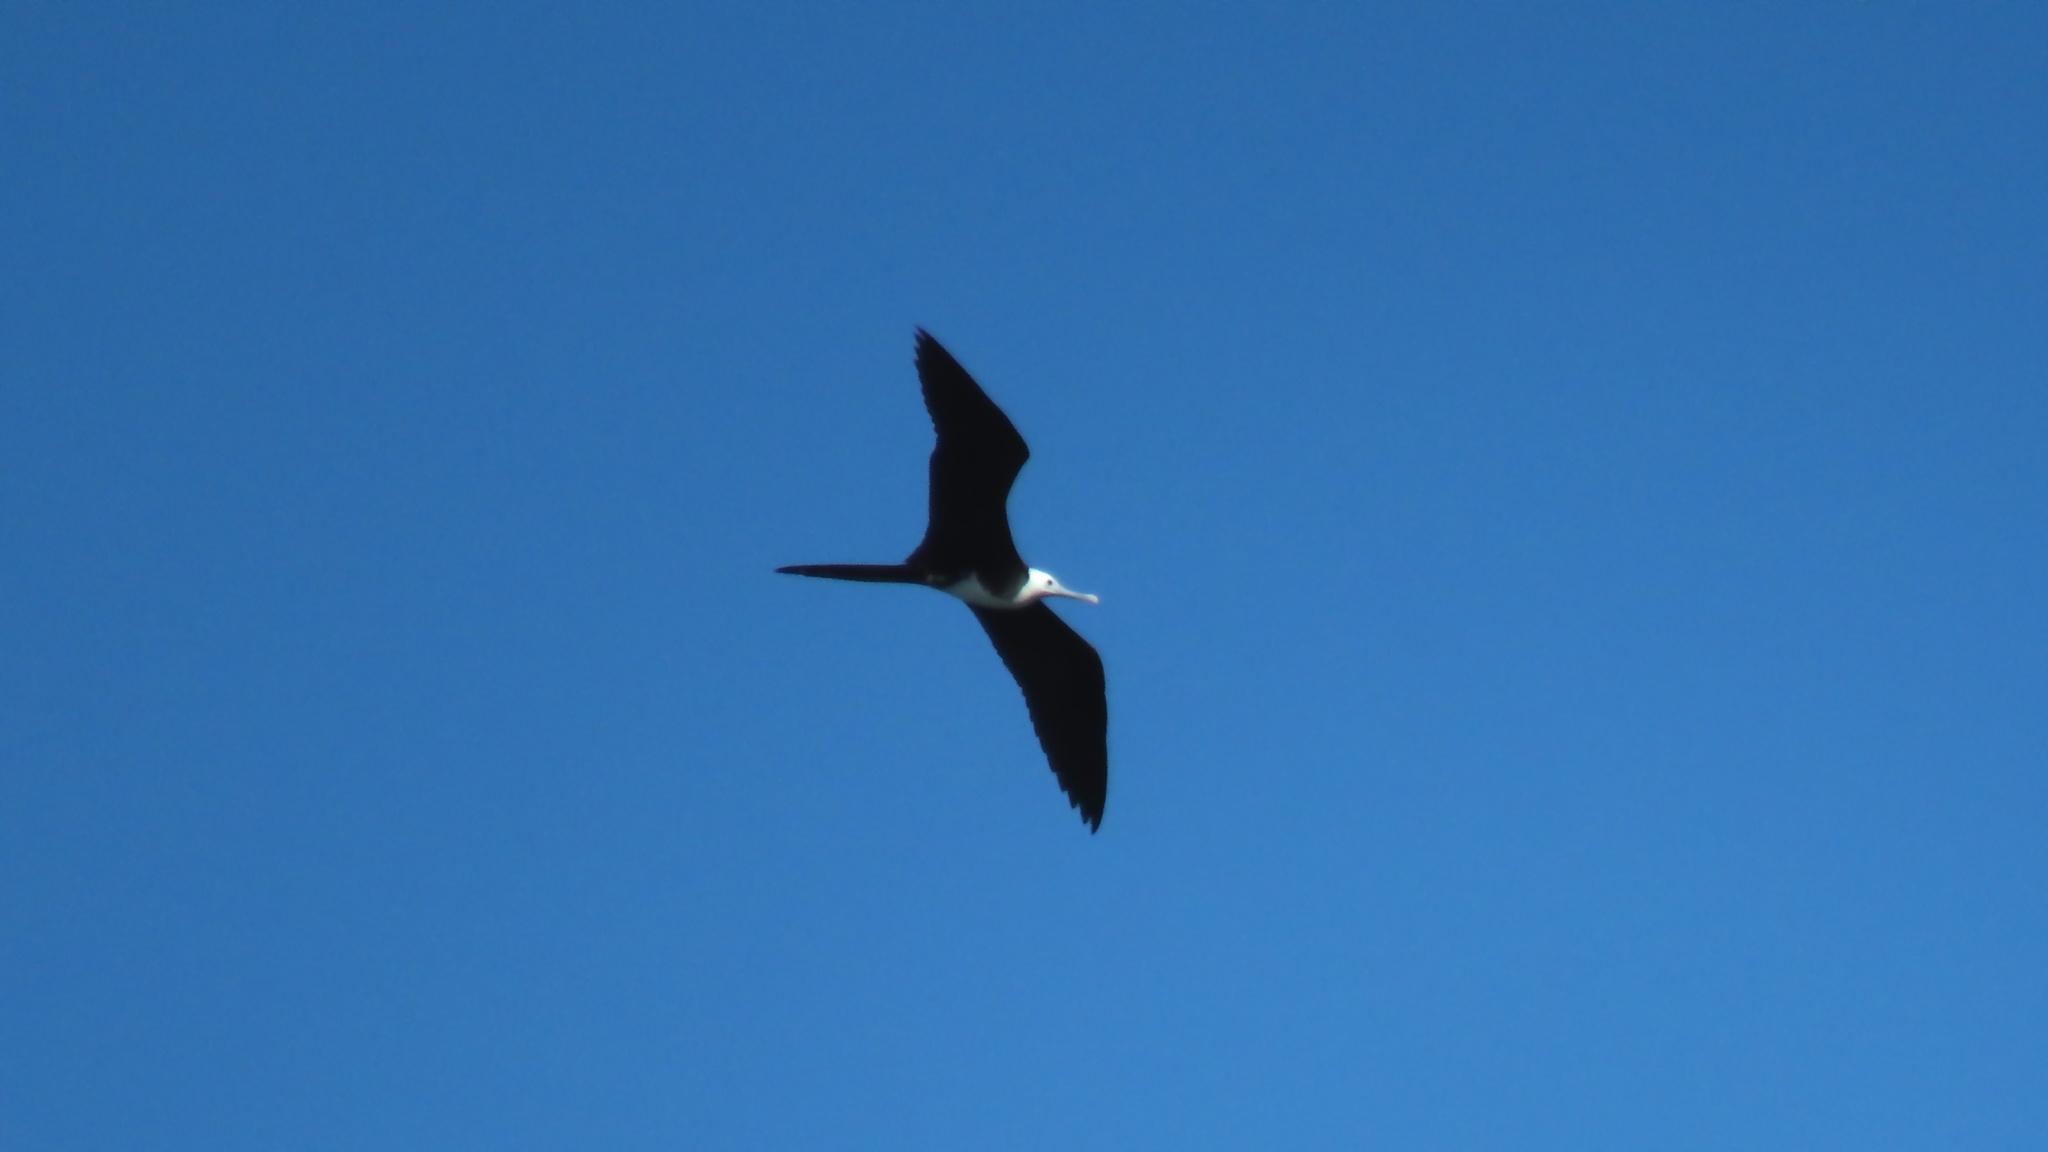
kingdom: Animalia
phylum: Chordata
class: Aves
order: Suliformes
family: Fregatidae
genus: Fregata
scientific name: Fregata magnificens
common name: Magnificent frigatebird
